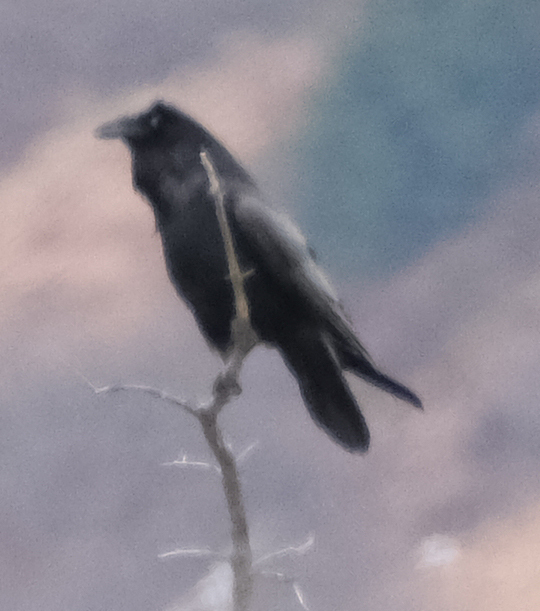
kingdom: Animalia
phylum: Chordata
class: Aves
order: Passeriformes
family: Corvidae
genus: Corvus
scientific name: Corvus corax
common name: Common raven
